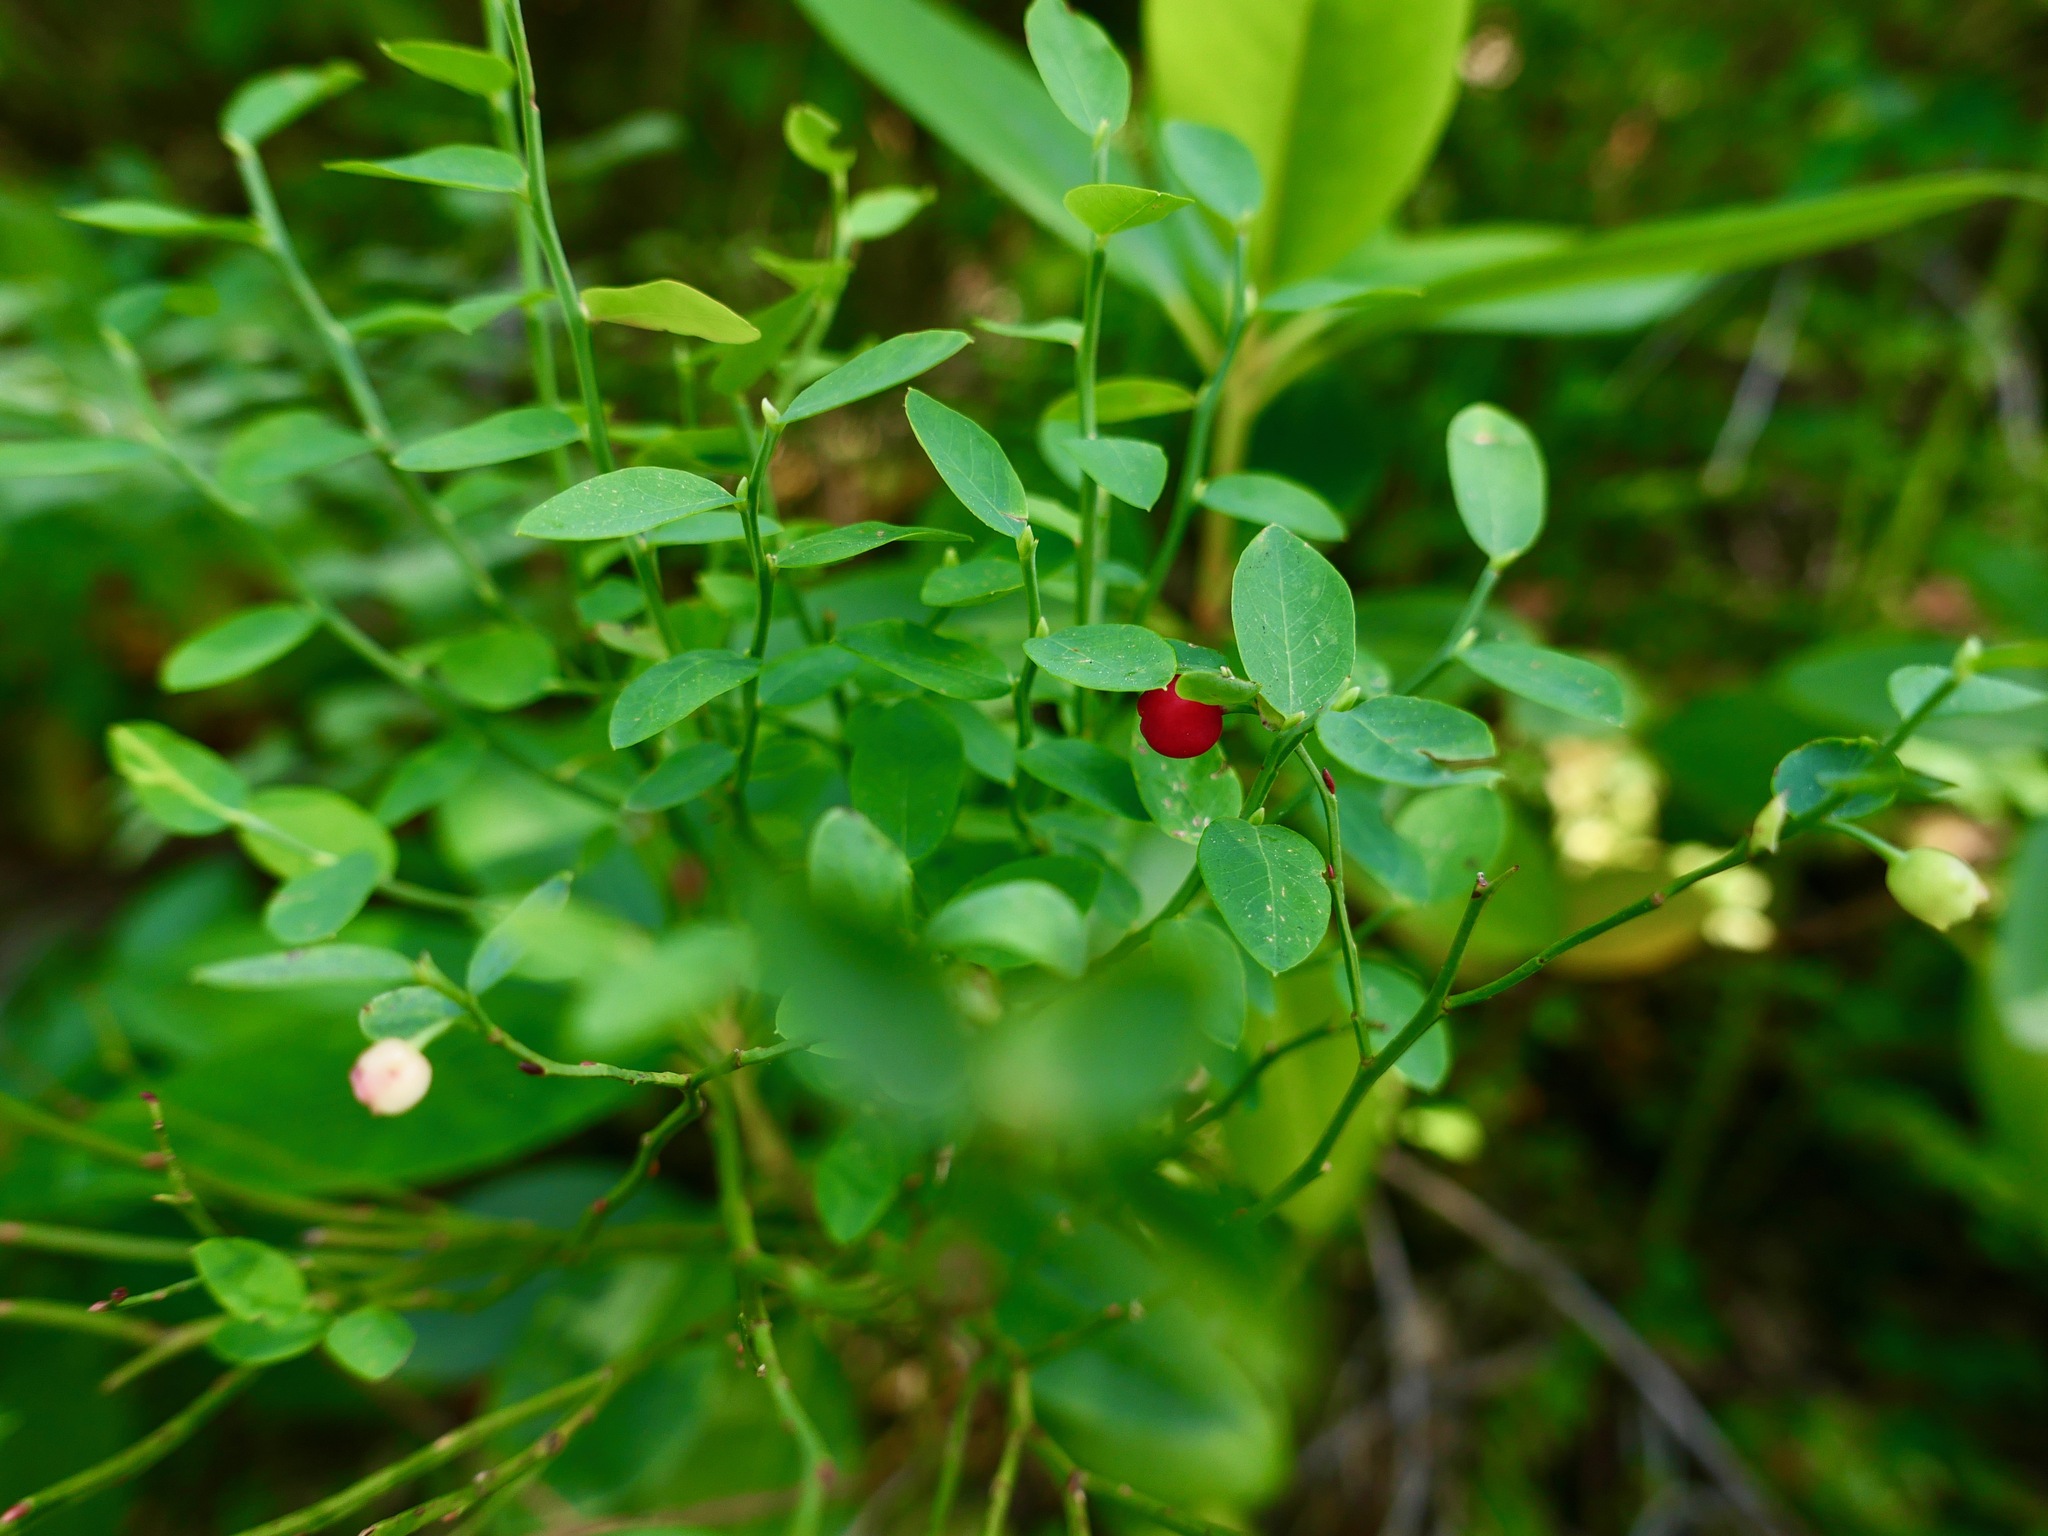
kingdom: Plantae
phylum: Tracheophyta
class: Magnoliopsida
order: Ericales
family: Ericaceae
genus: Vaccinium
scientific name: Vaccinium parvifolium
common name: Red-huckleberry
